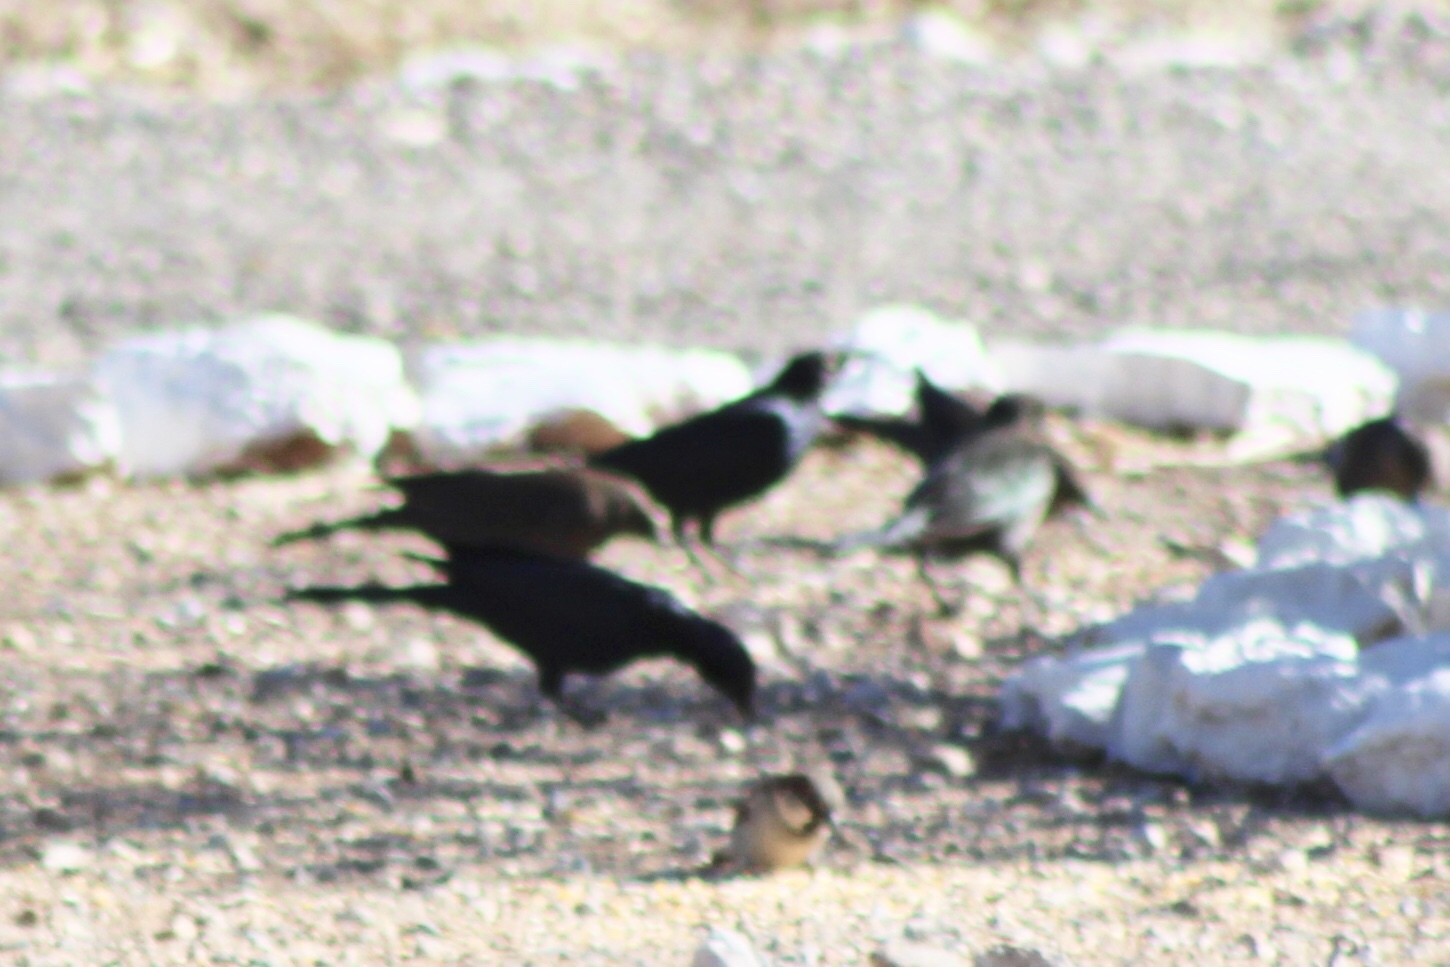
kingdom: Animalia
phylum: Chordata
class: Aves
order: Passeriformes
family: Icteridae
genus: Euphagus
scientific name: Euphagus cyanocephalus
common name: Brewer's blackbird
